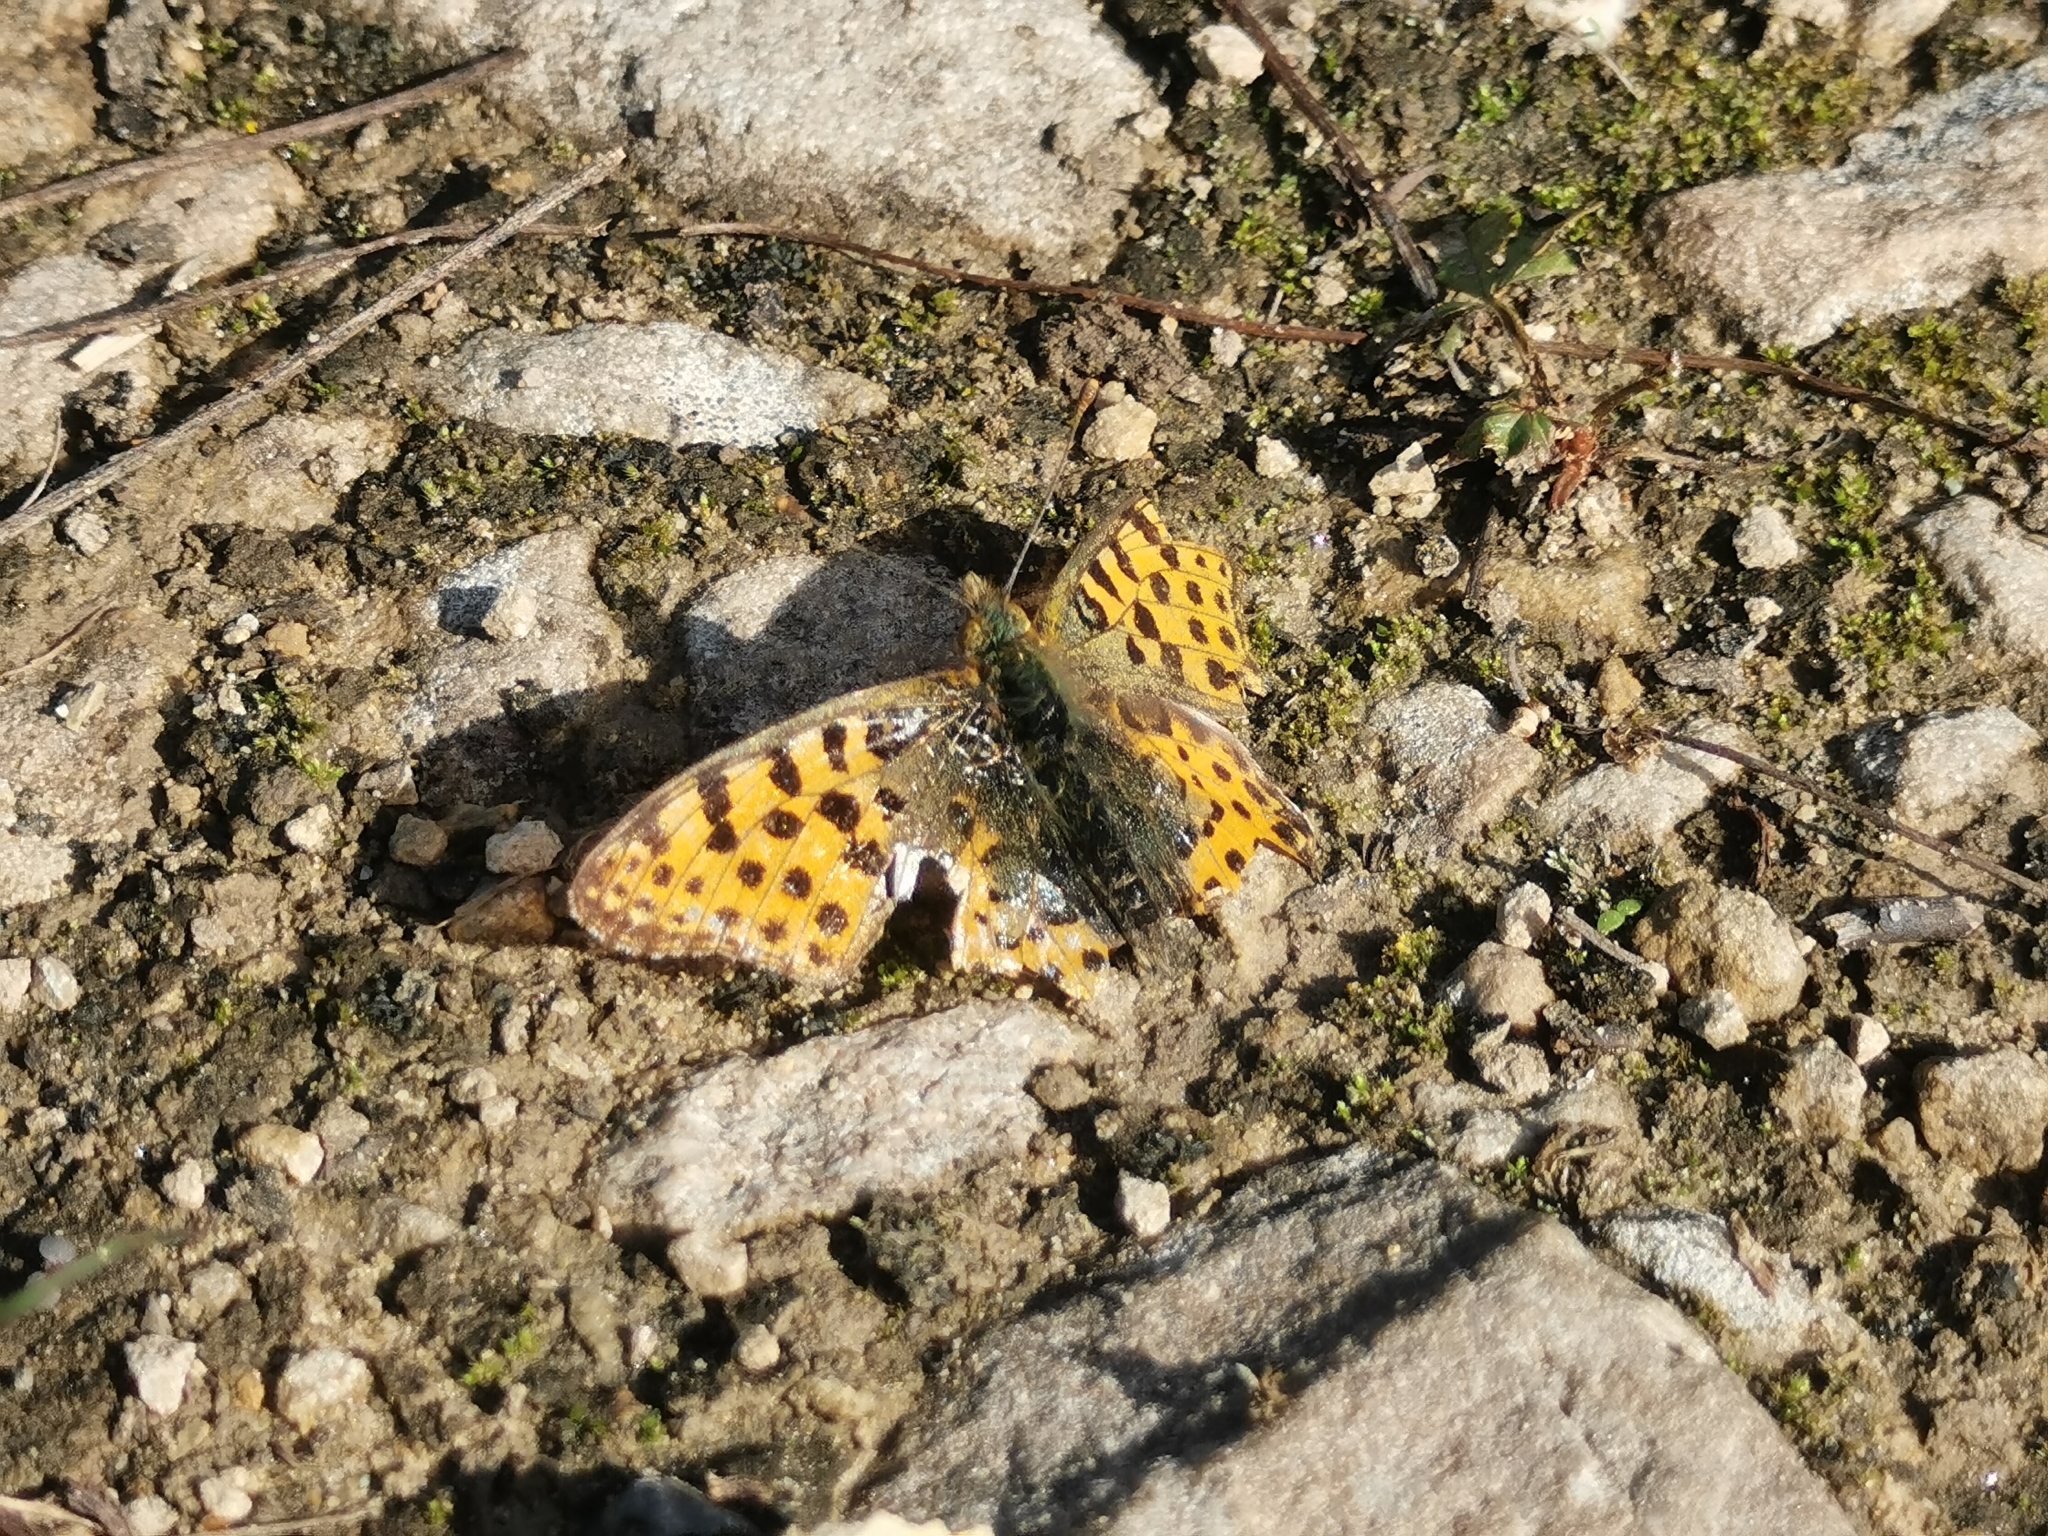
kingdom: Animalia
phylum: Arthropoda
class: Insecta
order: Lepidoptera
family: Nymphalidae
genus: Issoria
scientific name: Issoria lathonia
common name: Queen of spain fritillary
